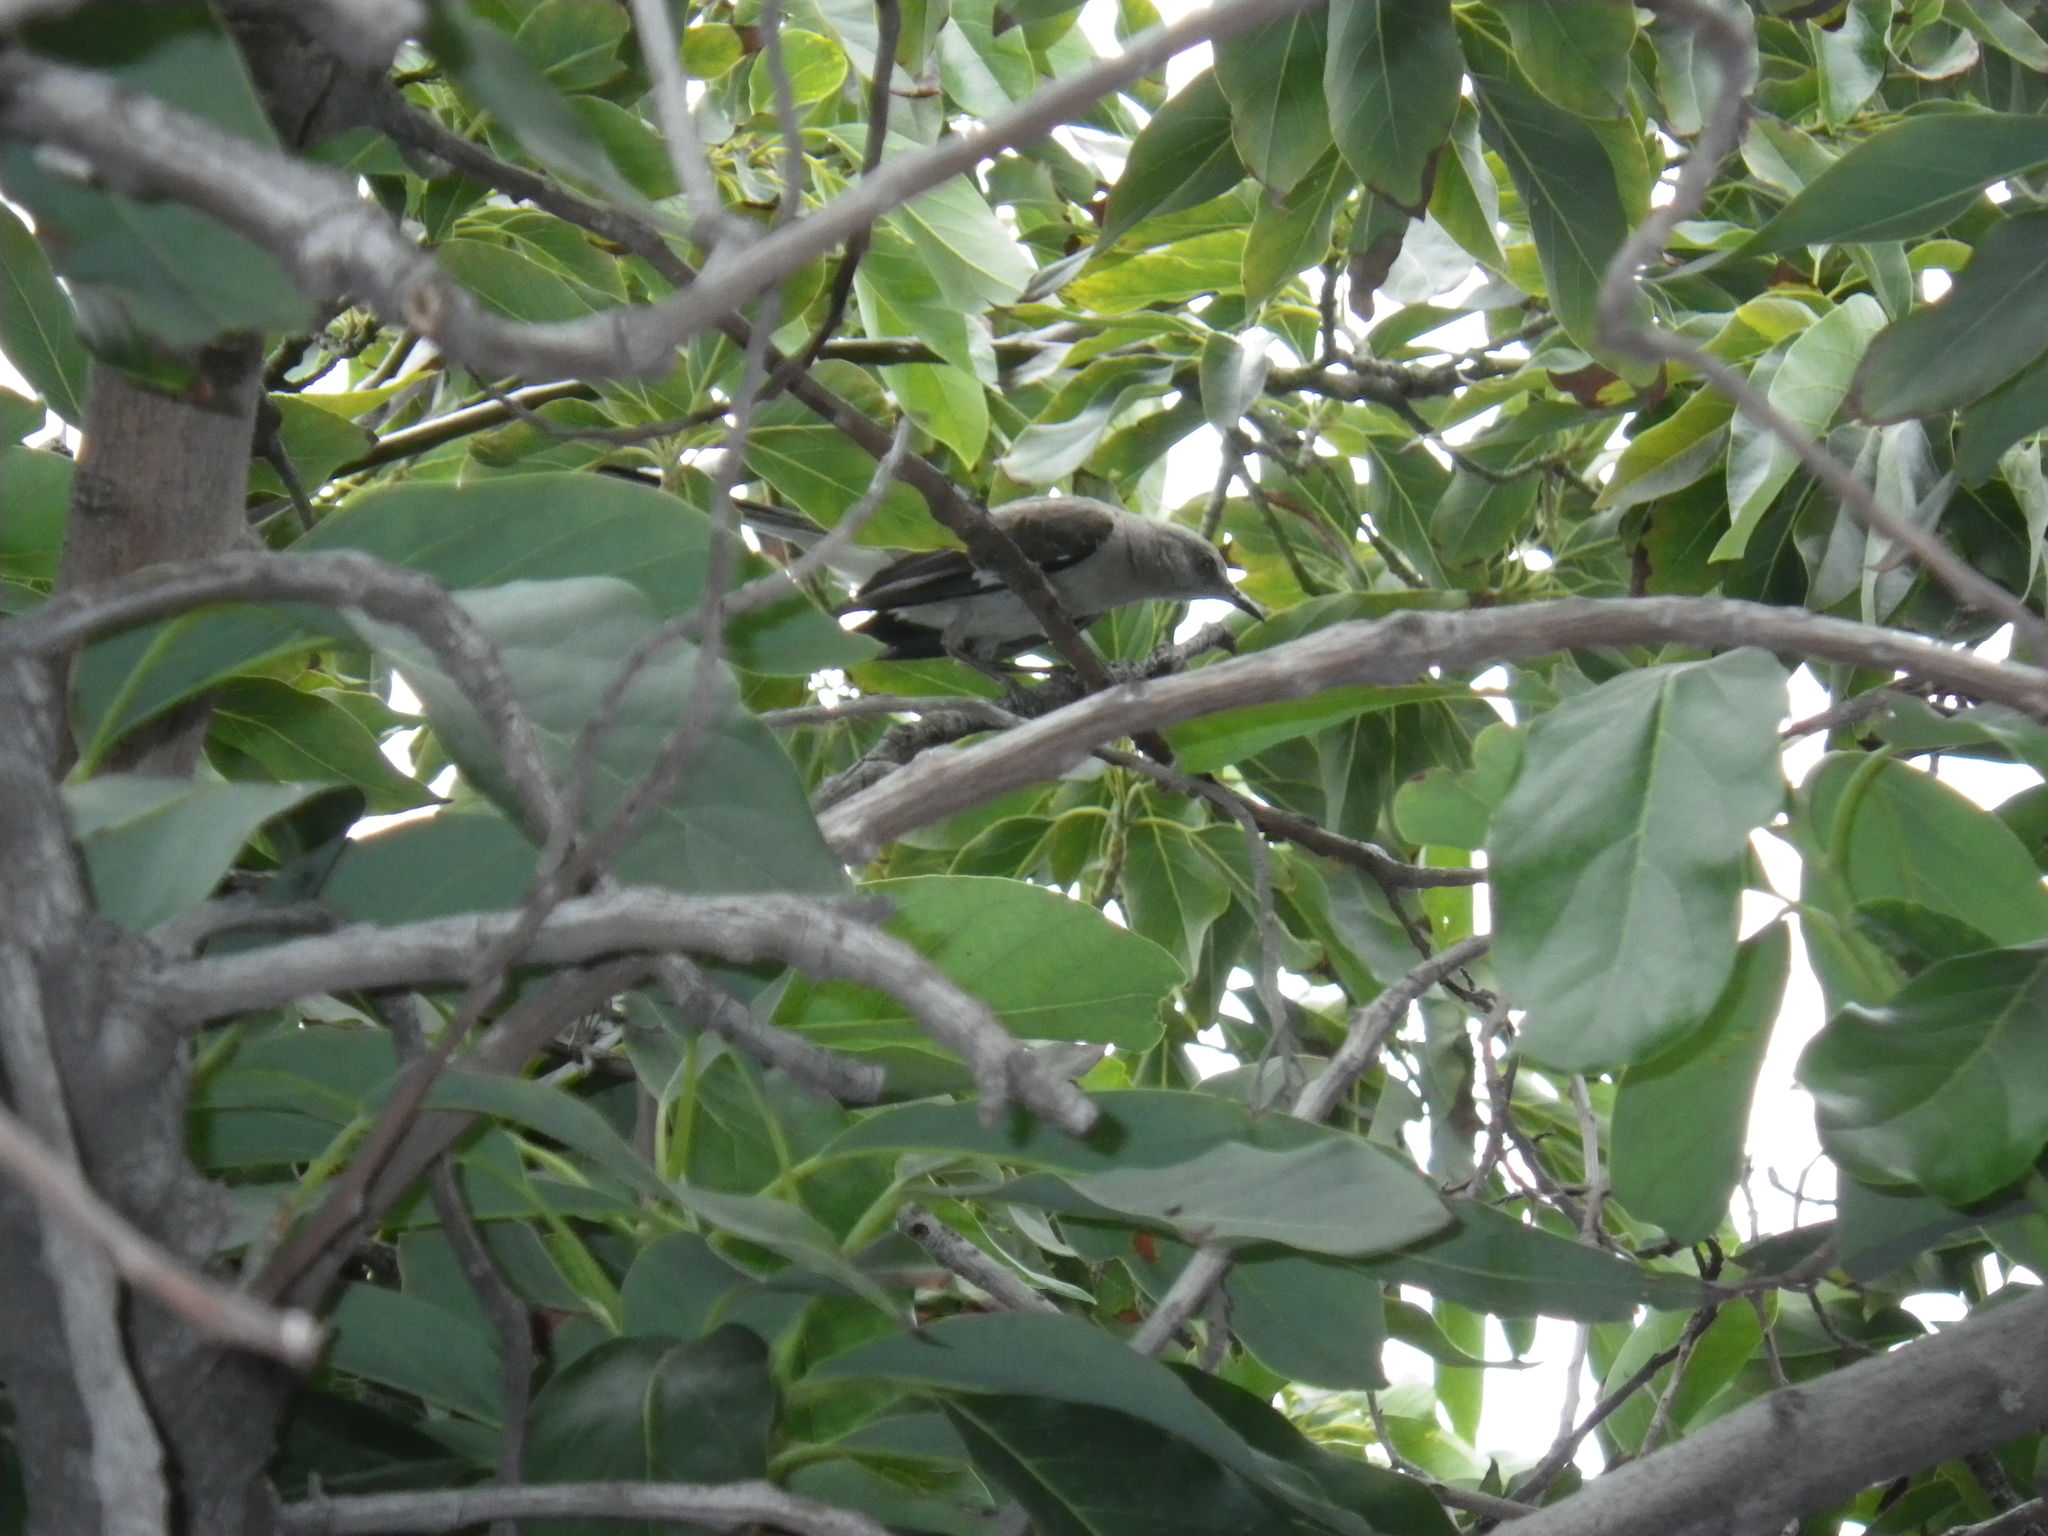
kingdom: Animalia
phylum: Chordata
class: Aves
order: Passeriformes
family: Mimidae
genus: Mimus
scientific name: Mimus polyglottos
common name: Northern mockingbird
